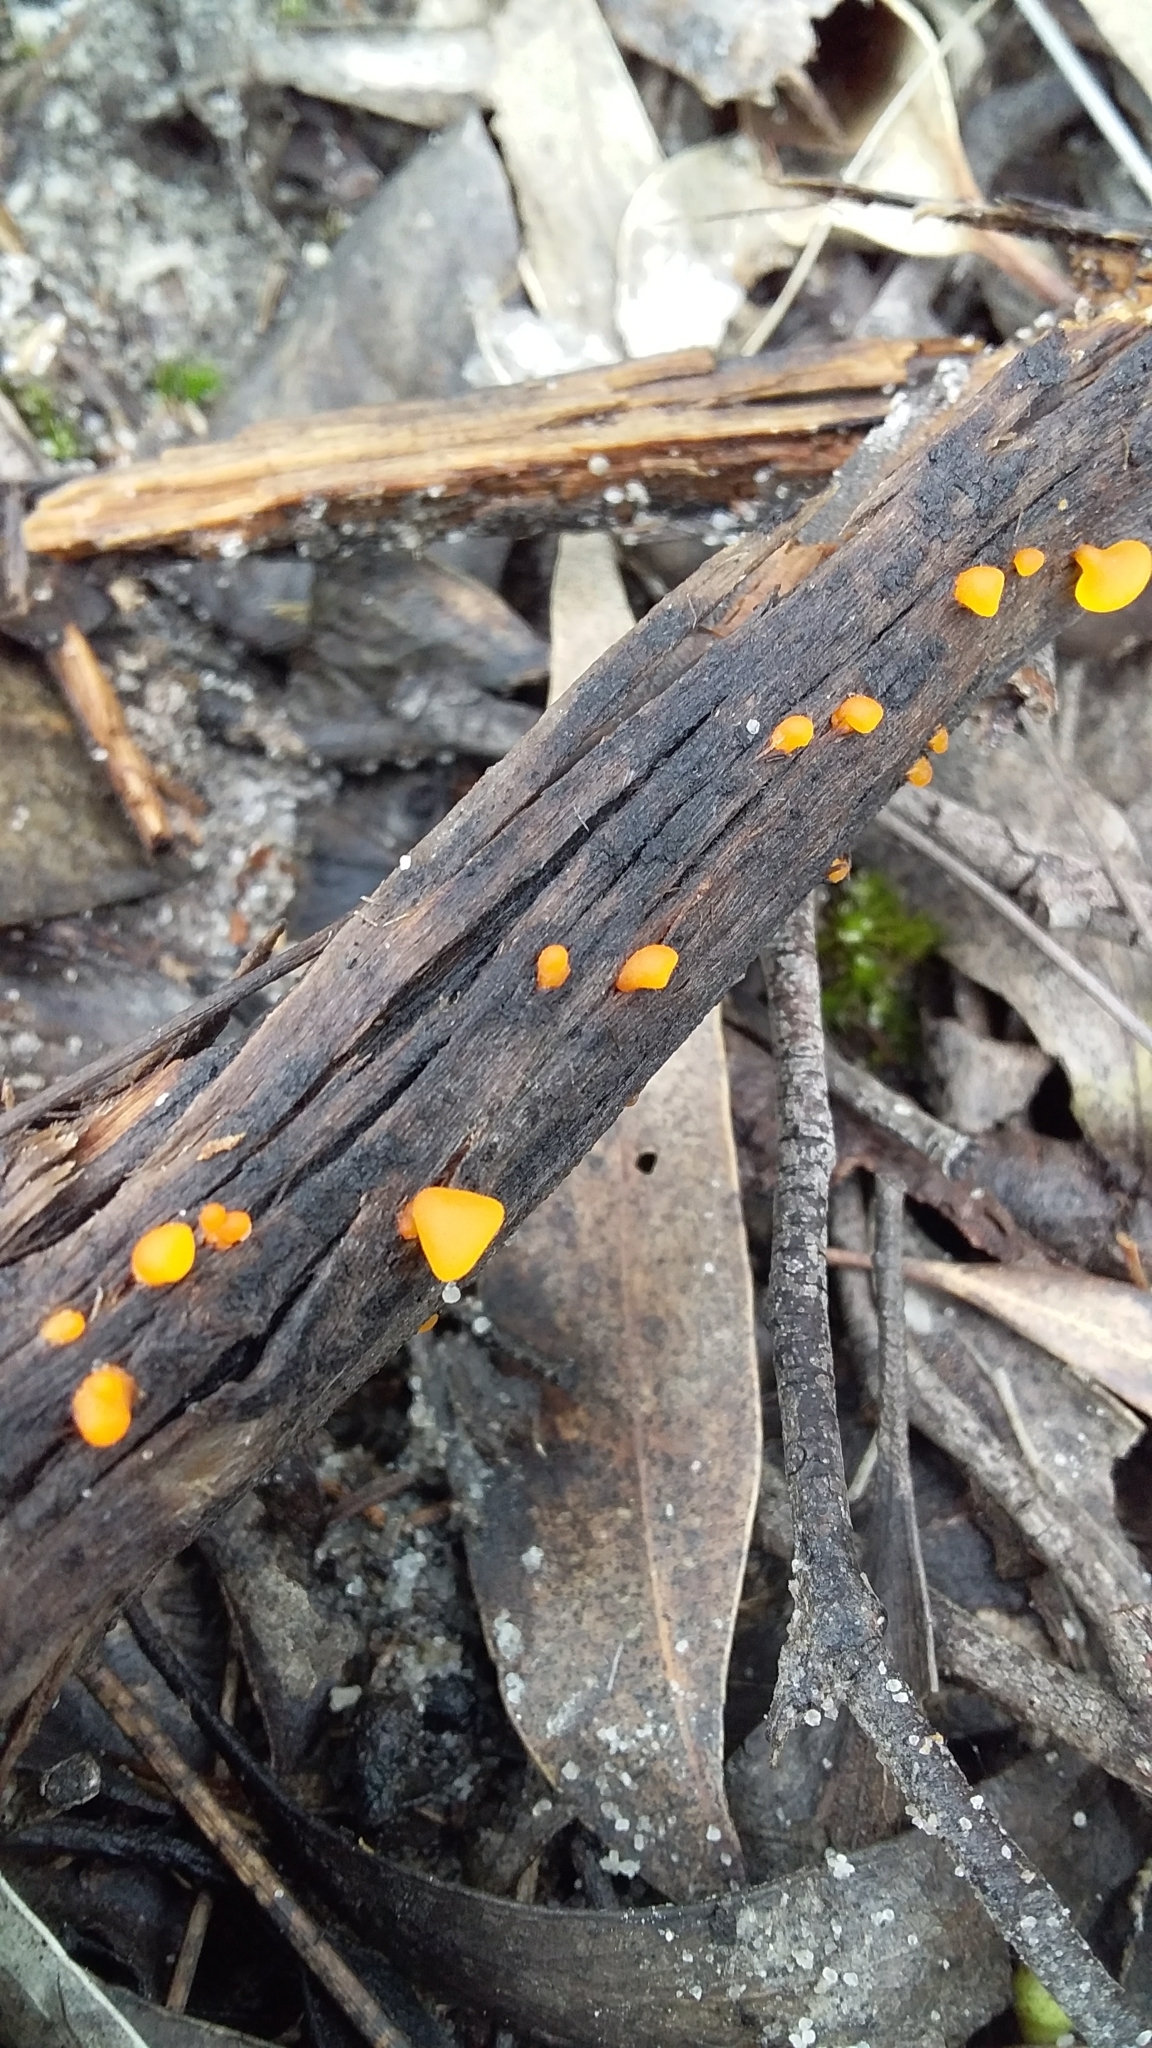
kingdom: Fungi
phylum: Basidiomycota
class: Dacrymycetes
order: Dacrymycetales
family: Dacrymycetaceae
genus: Heterotextus
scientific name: Heterotextus peziziformis
